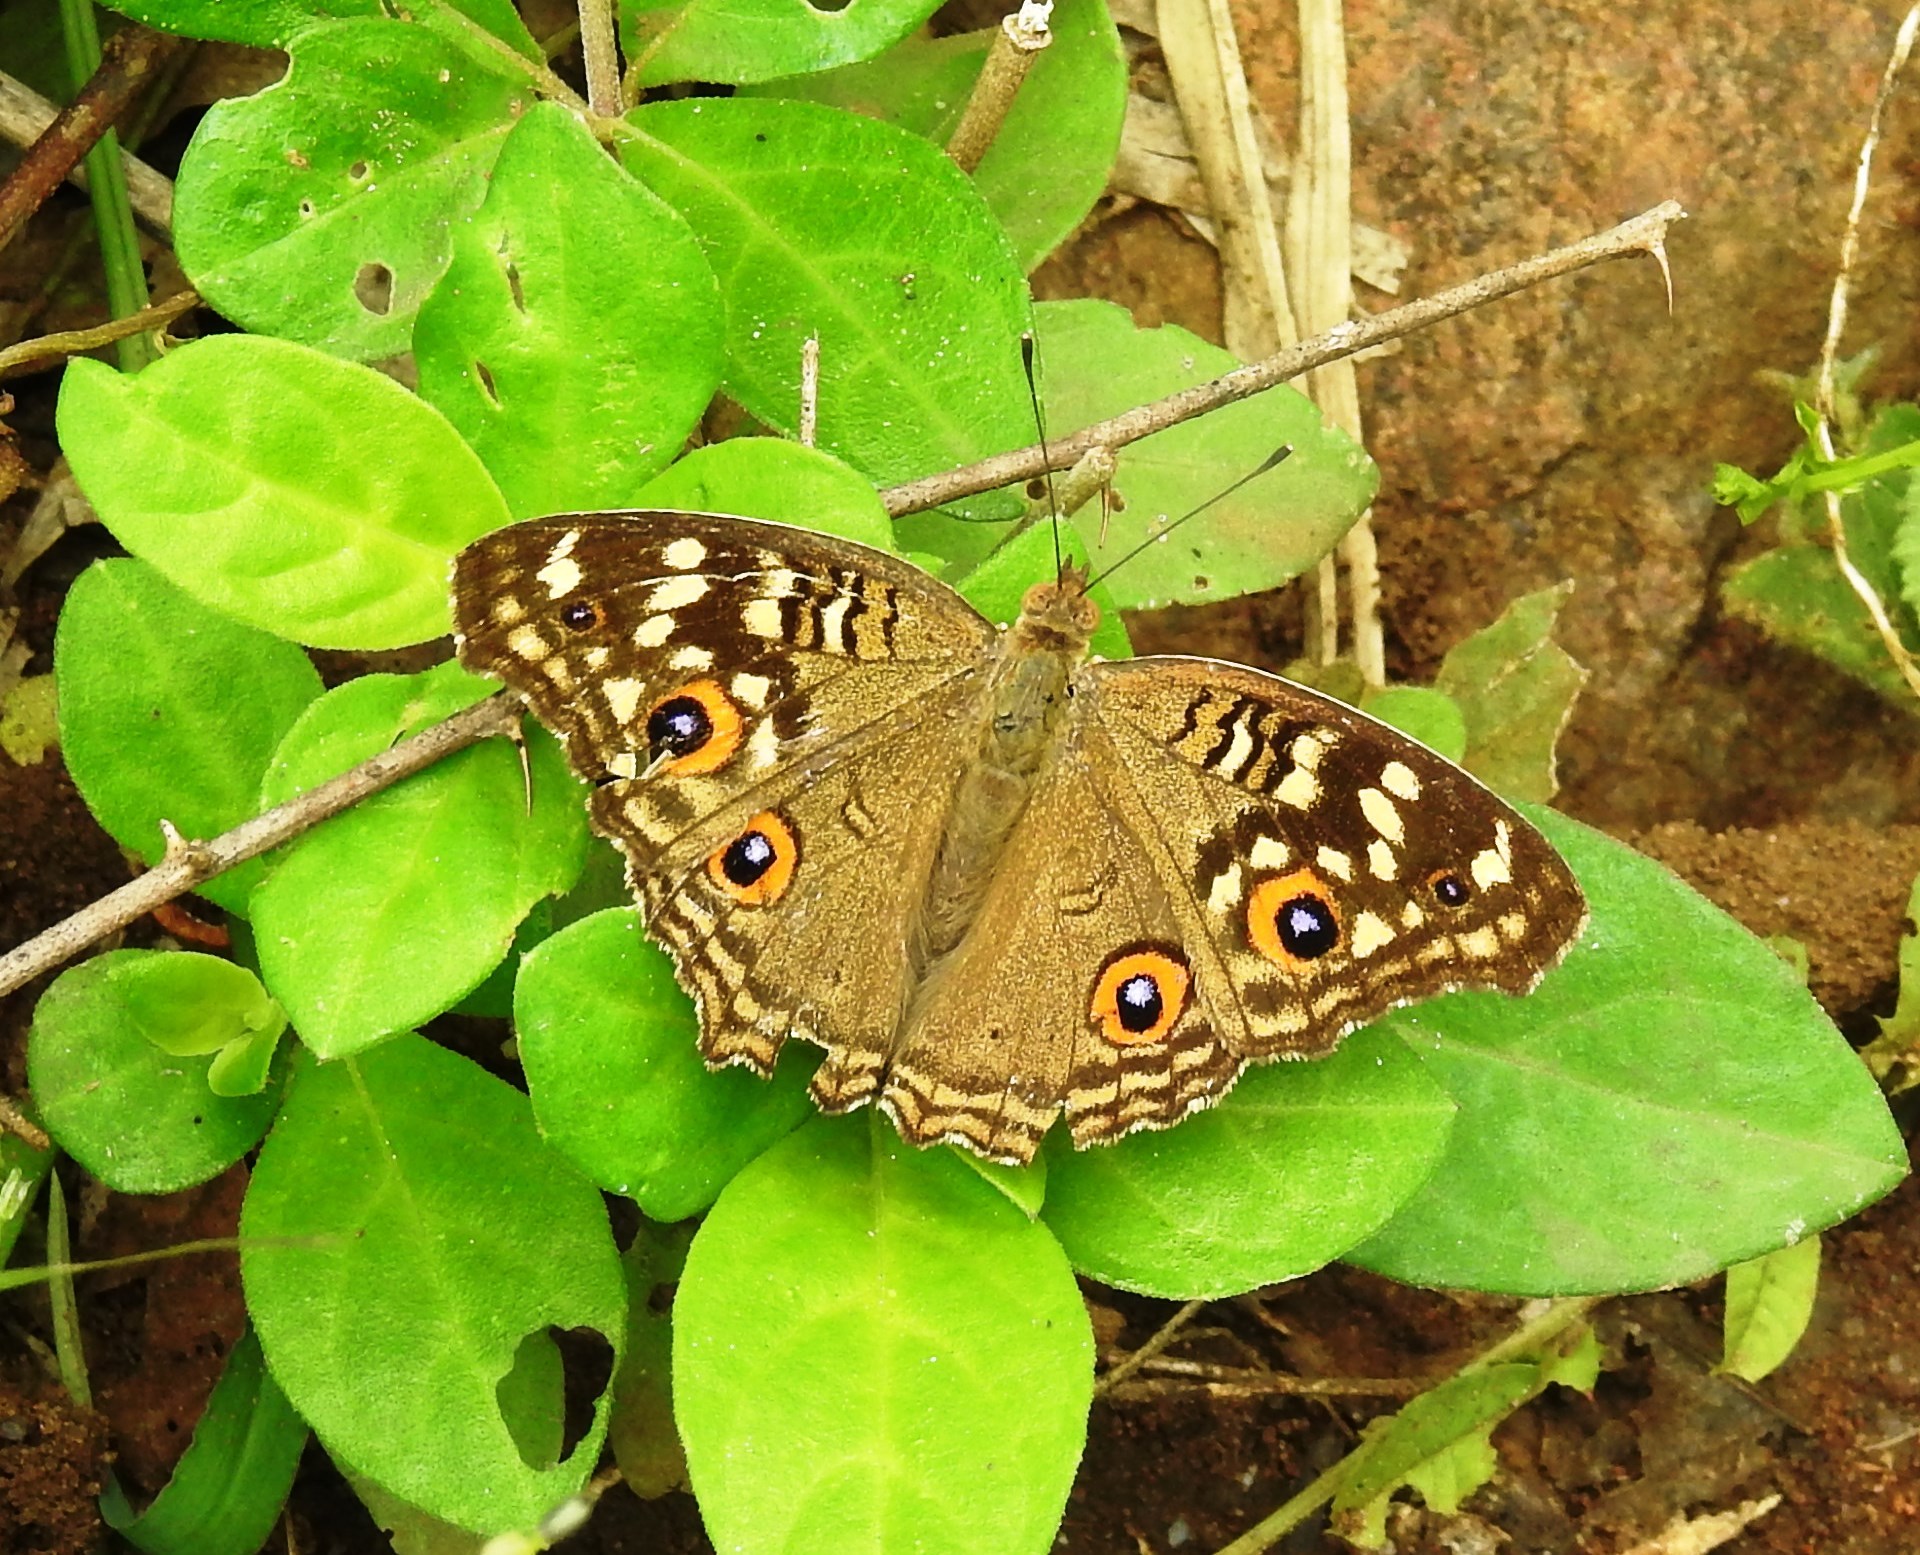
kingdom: Animalia
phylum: Arthropoda
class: Insecta
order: Lepidoptera
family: Nymphalidae
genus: Junonia
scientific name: Junonia lemonias
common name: Lemon pansy
